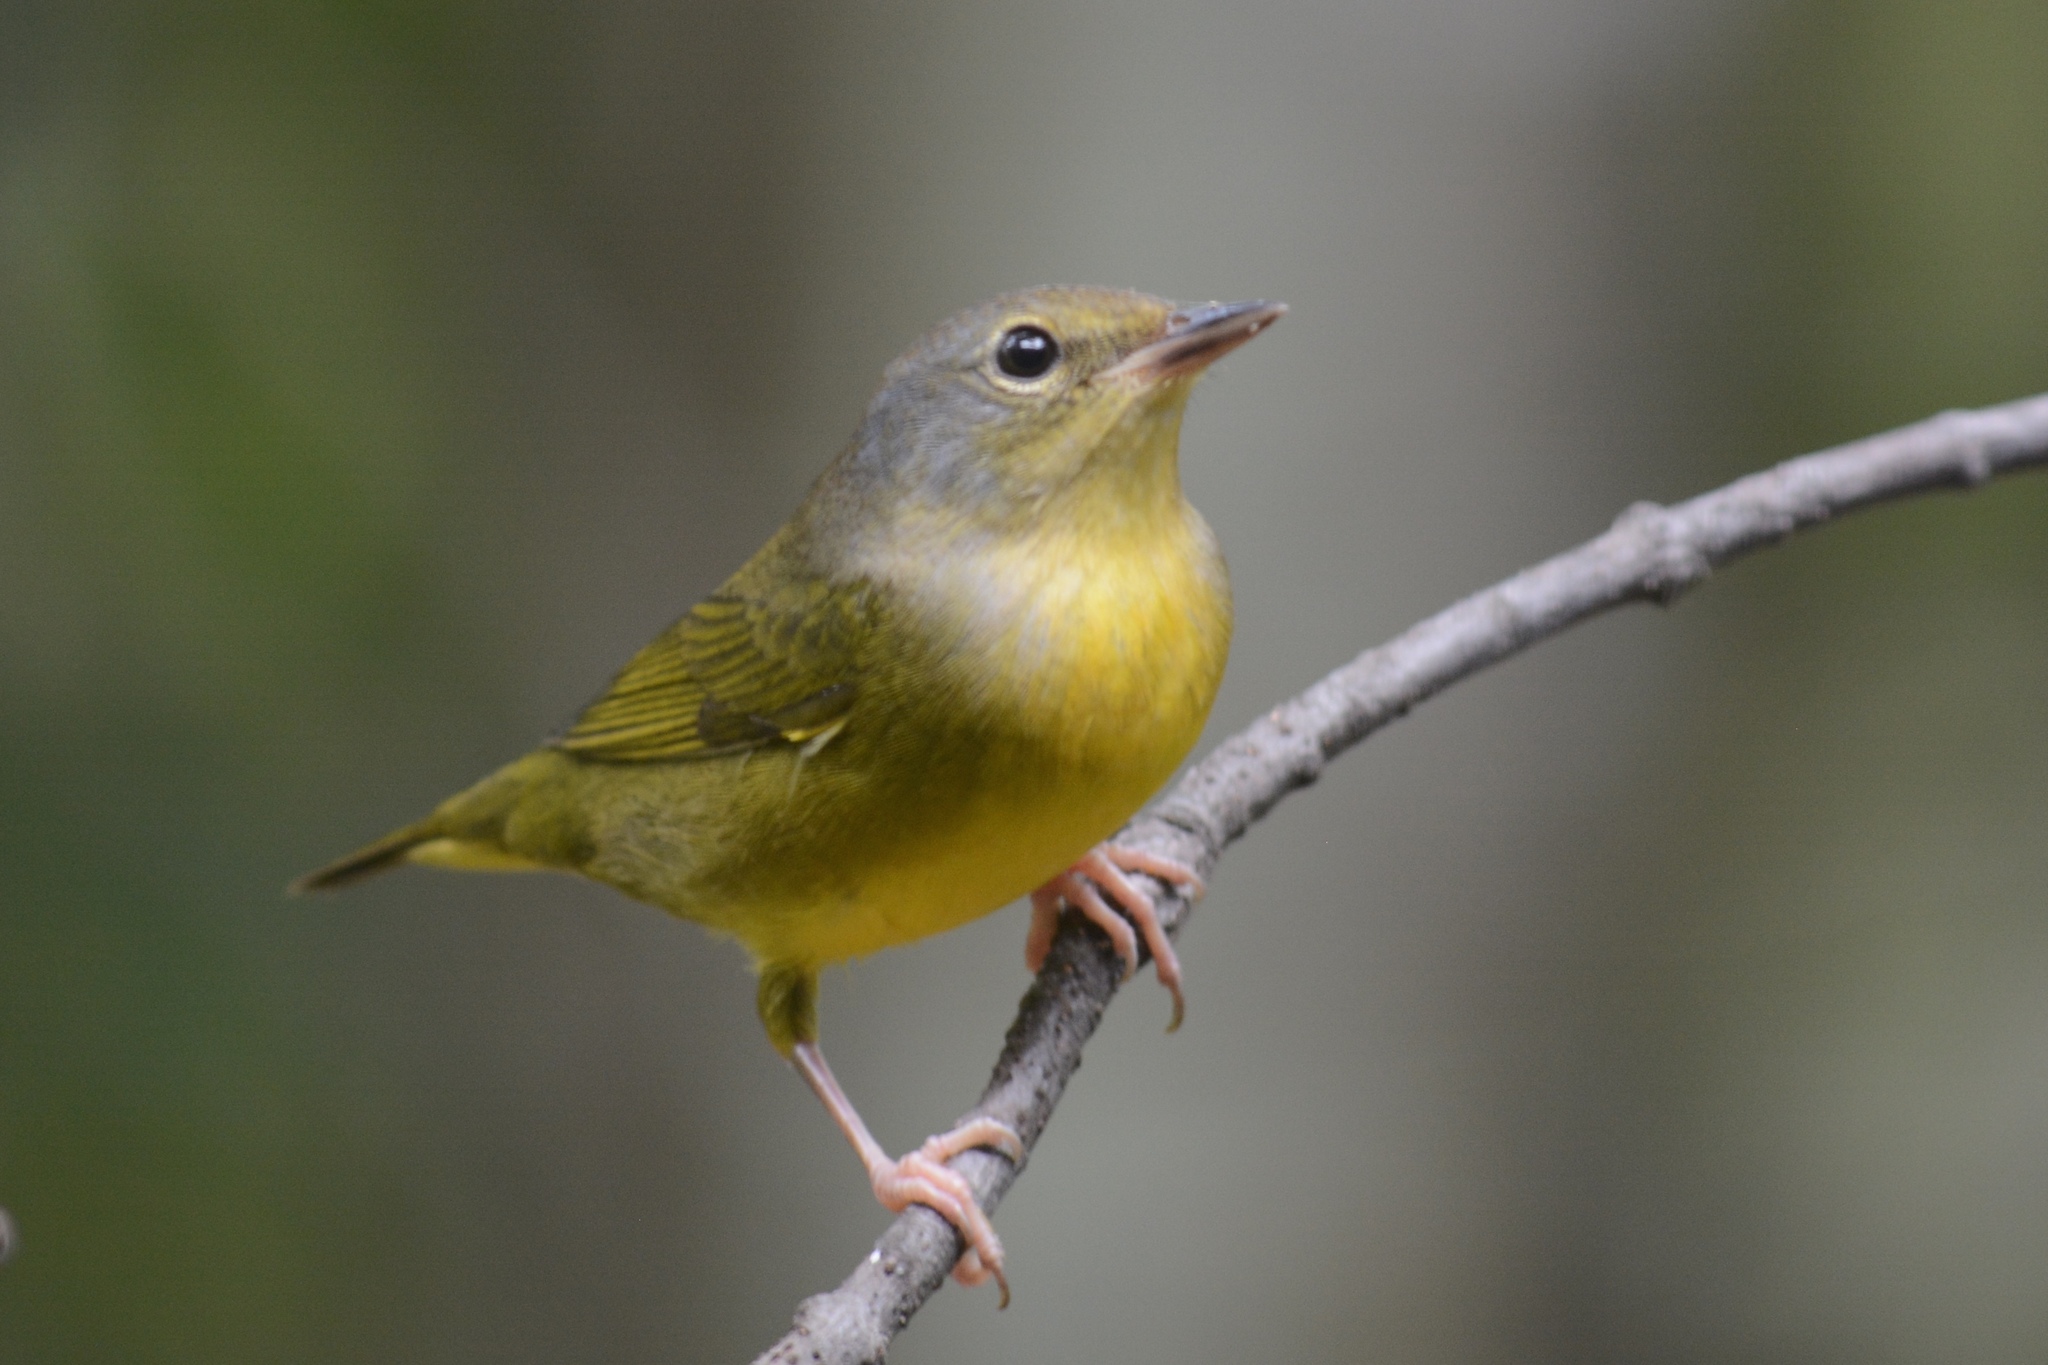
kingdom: Animalia
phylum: Chordata
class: Aves
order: Passeriformes
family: Parulidae
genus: Geothlypis
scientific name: Geothlypis philadelphia
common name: Mourning warbler
